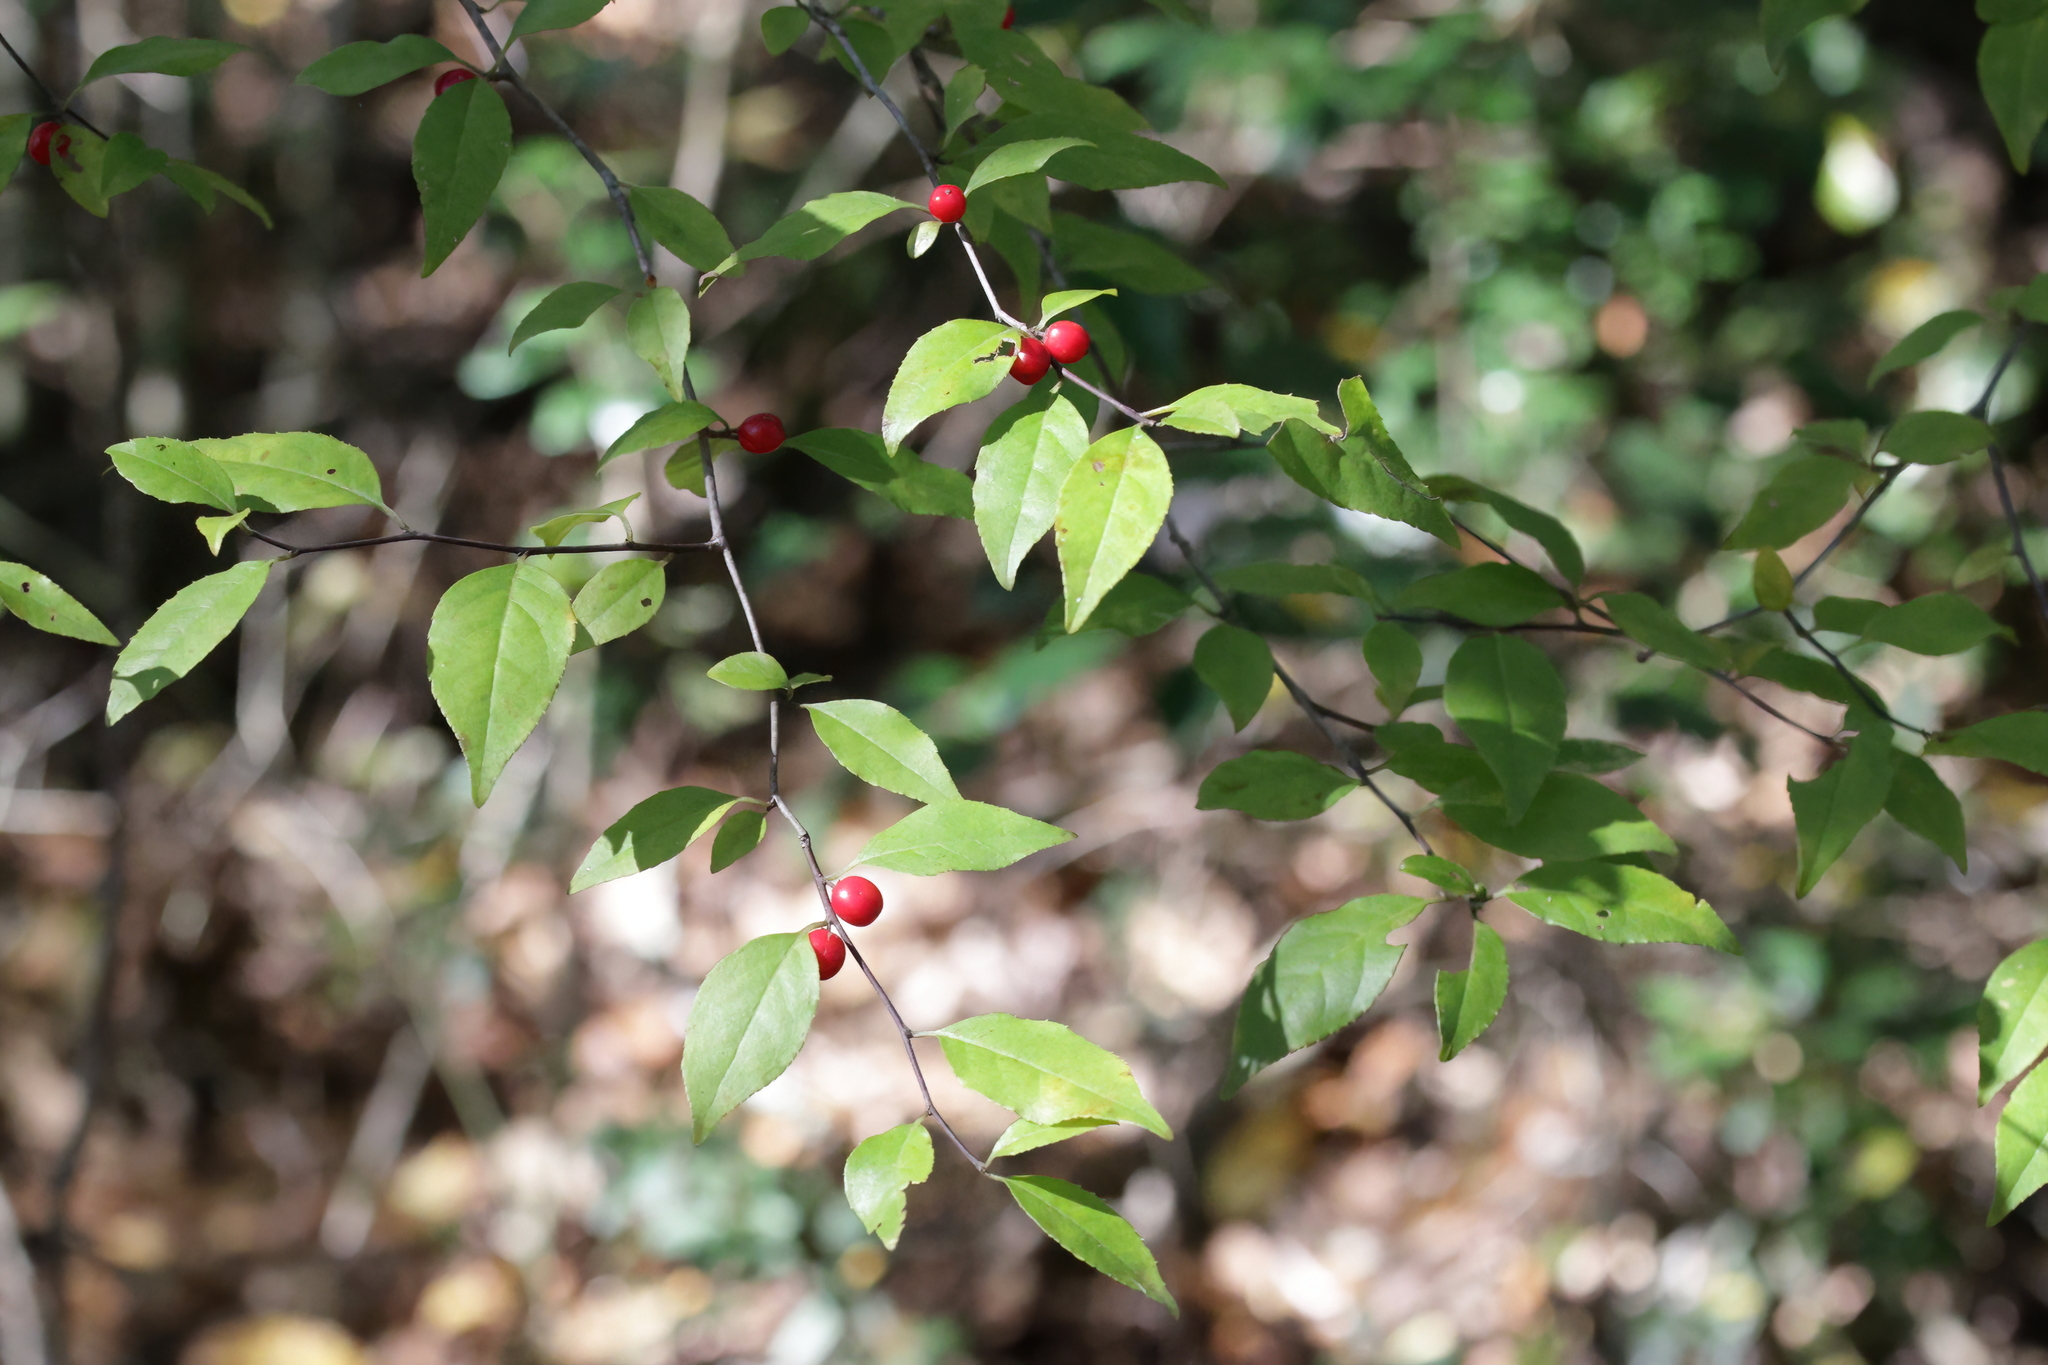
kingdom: Plantae
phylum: Tracheophyta
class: Magnoliopsida
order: Aquifoliales
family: Aquifoliaceae
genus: Ilex
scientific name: Ilex ambigua
